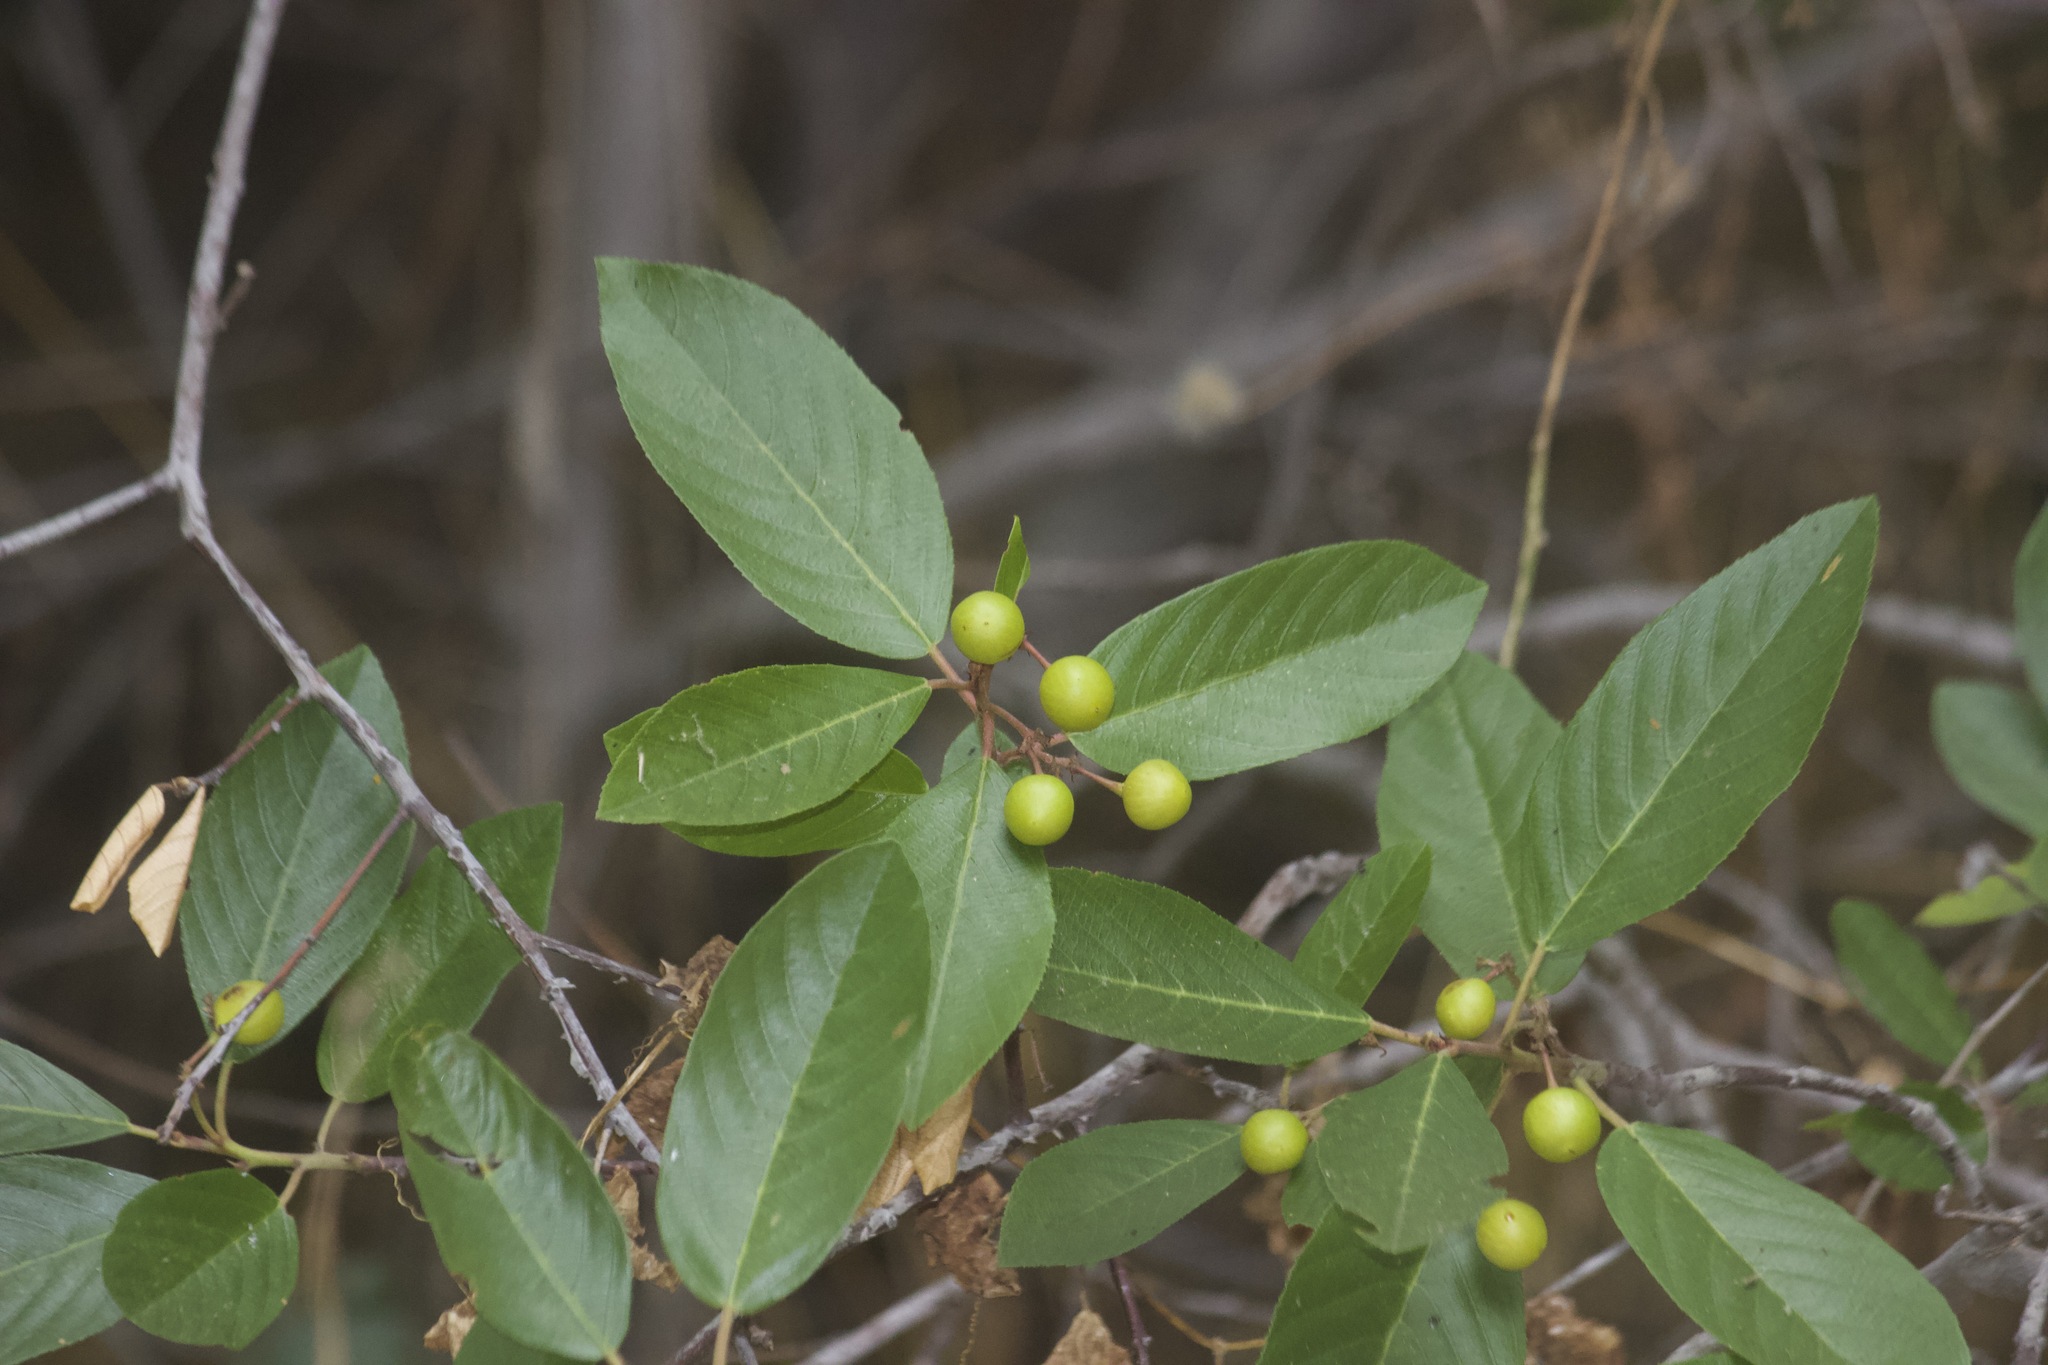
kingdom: Plantae
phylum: Tracheophyta
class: Magnoliopsida
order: Rosales
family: Rhamnaceae
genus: Frangula
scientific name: Frangula californica
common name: California buckthorn
